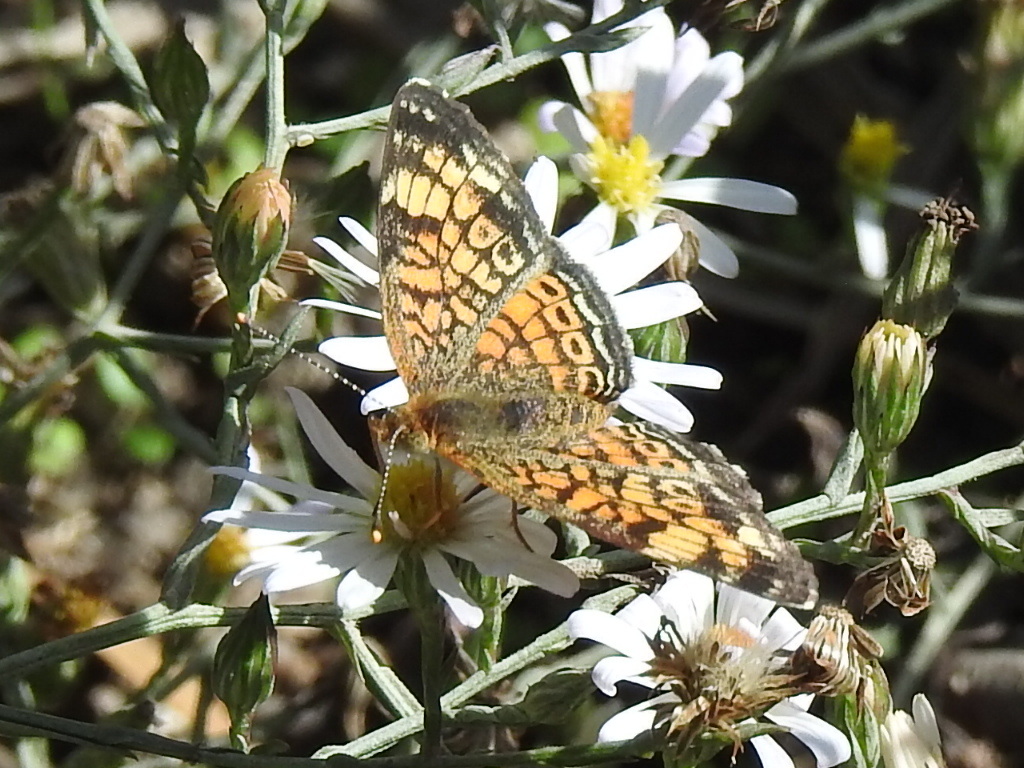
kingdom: Animalia
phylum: Arthropoda
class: Insecta
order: Lepidoptera
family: Nymphalidae
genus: Phyciodes
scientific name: Phyciodes tharos
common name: Pearl crescent
